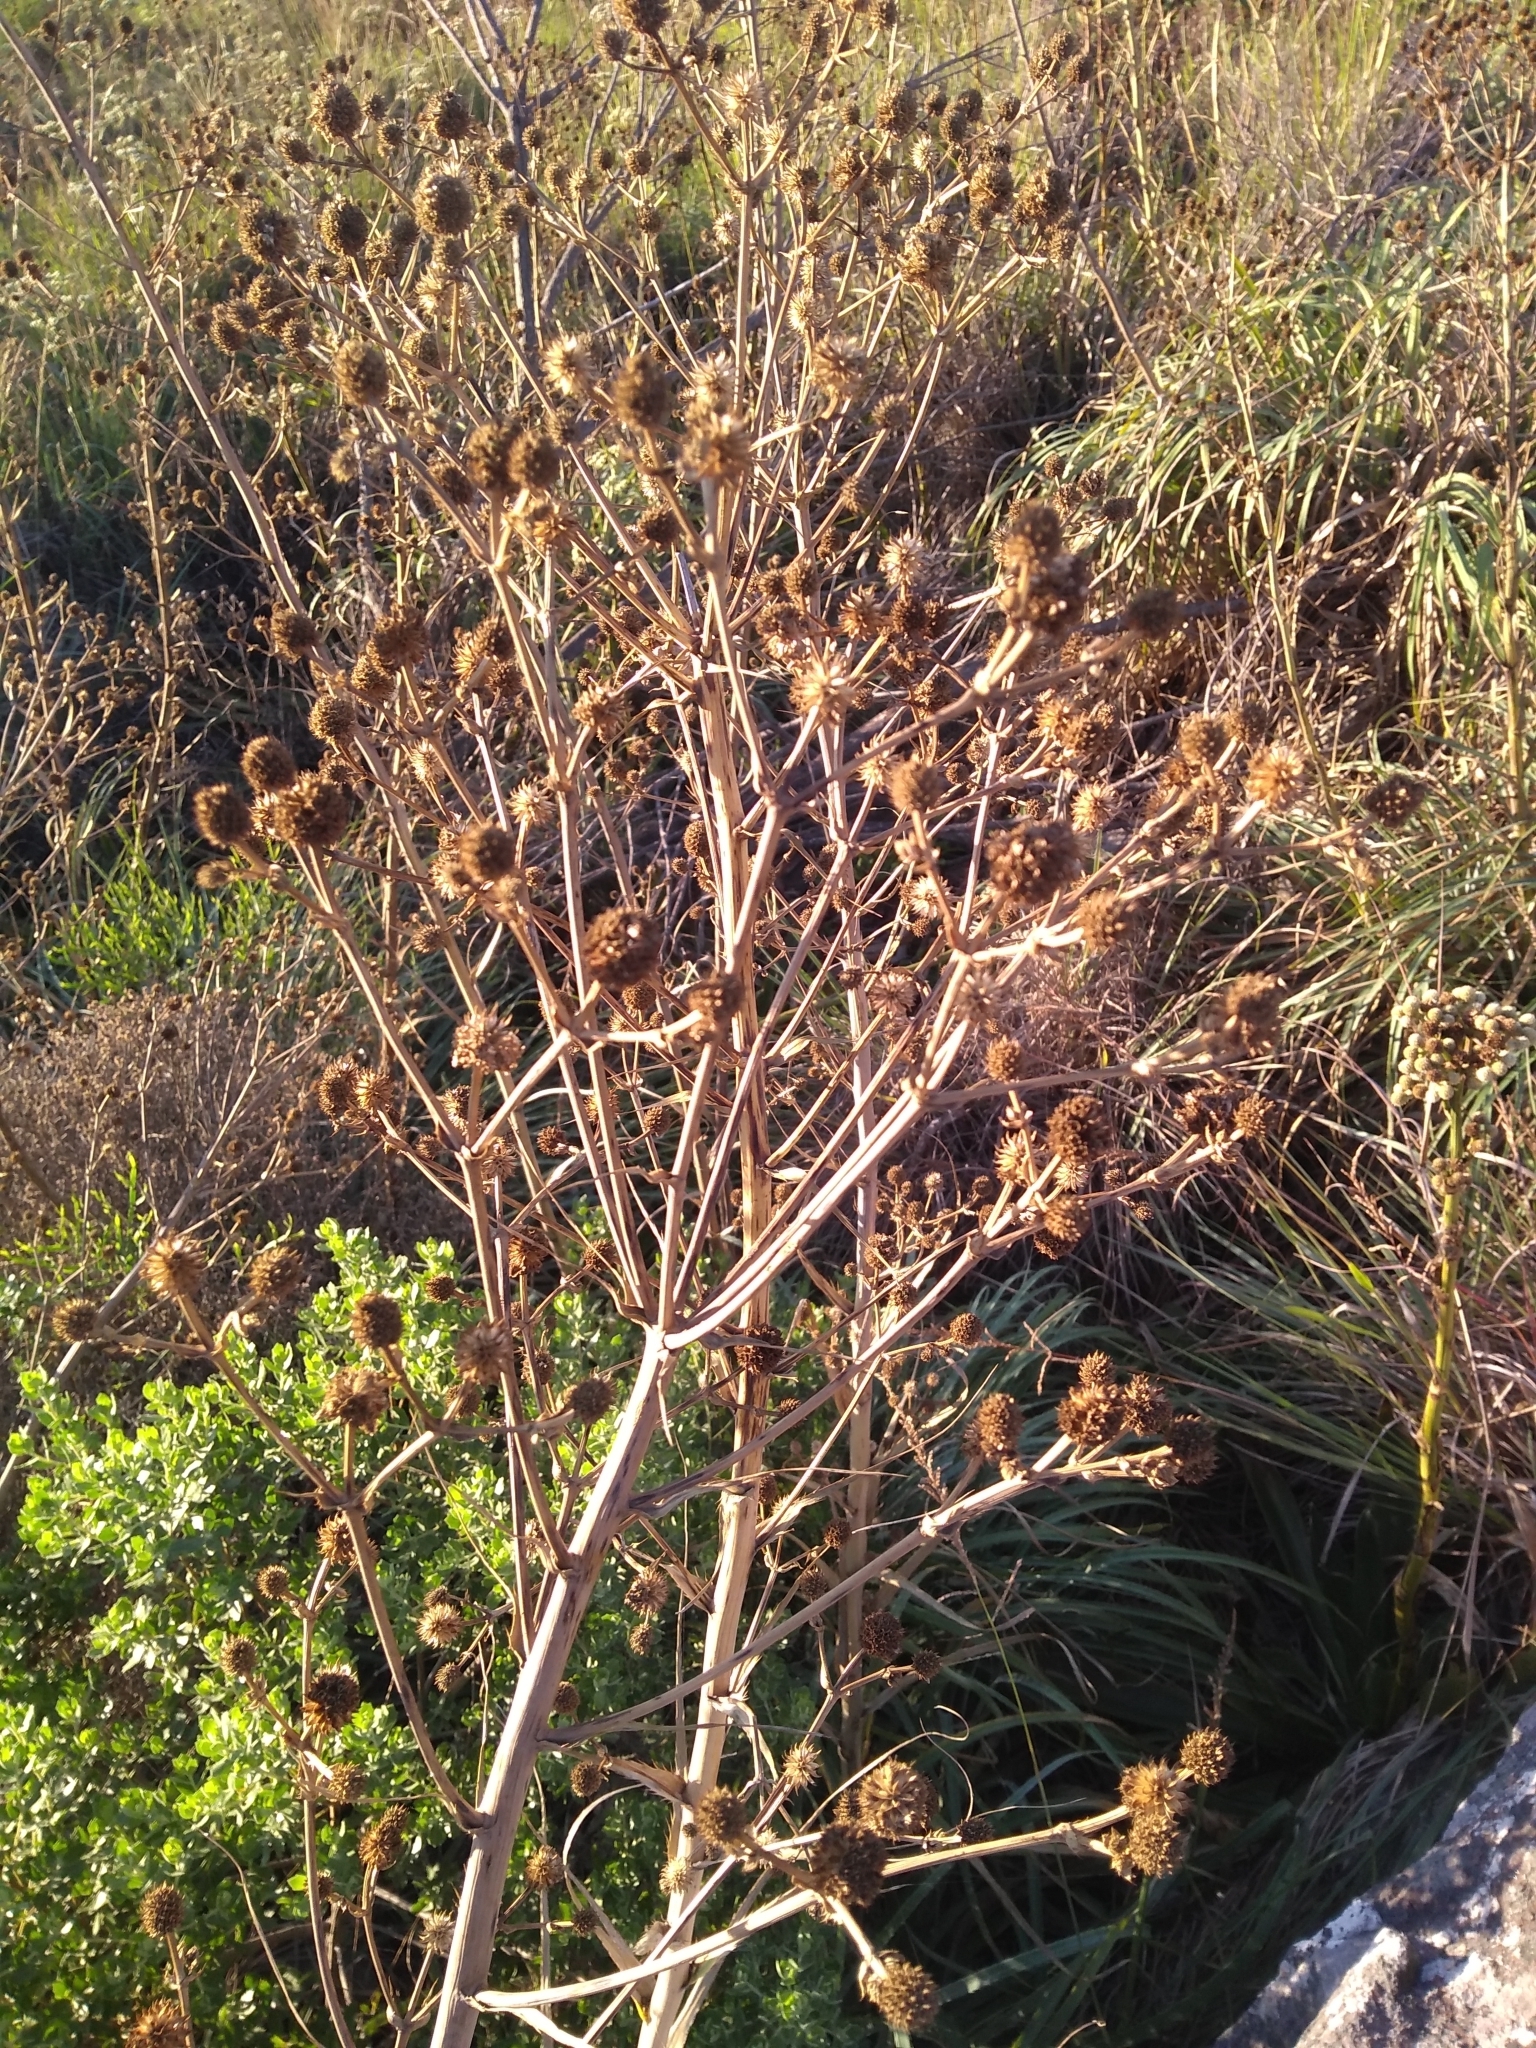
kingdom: Plantae
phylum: Tracheophyta
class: Magnoliopsida
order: Apiales
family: Apiaceae
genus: Eryngium
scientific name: Eryngium humboldtii
